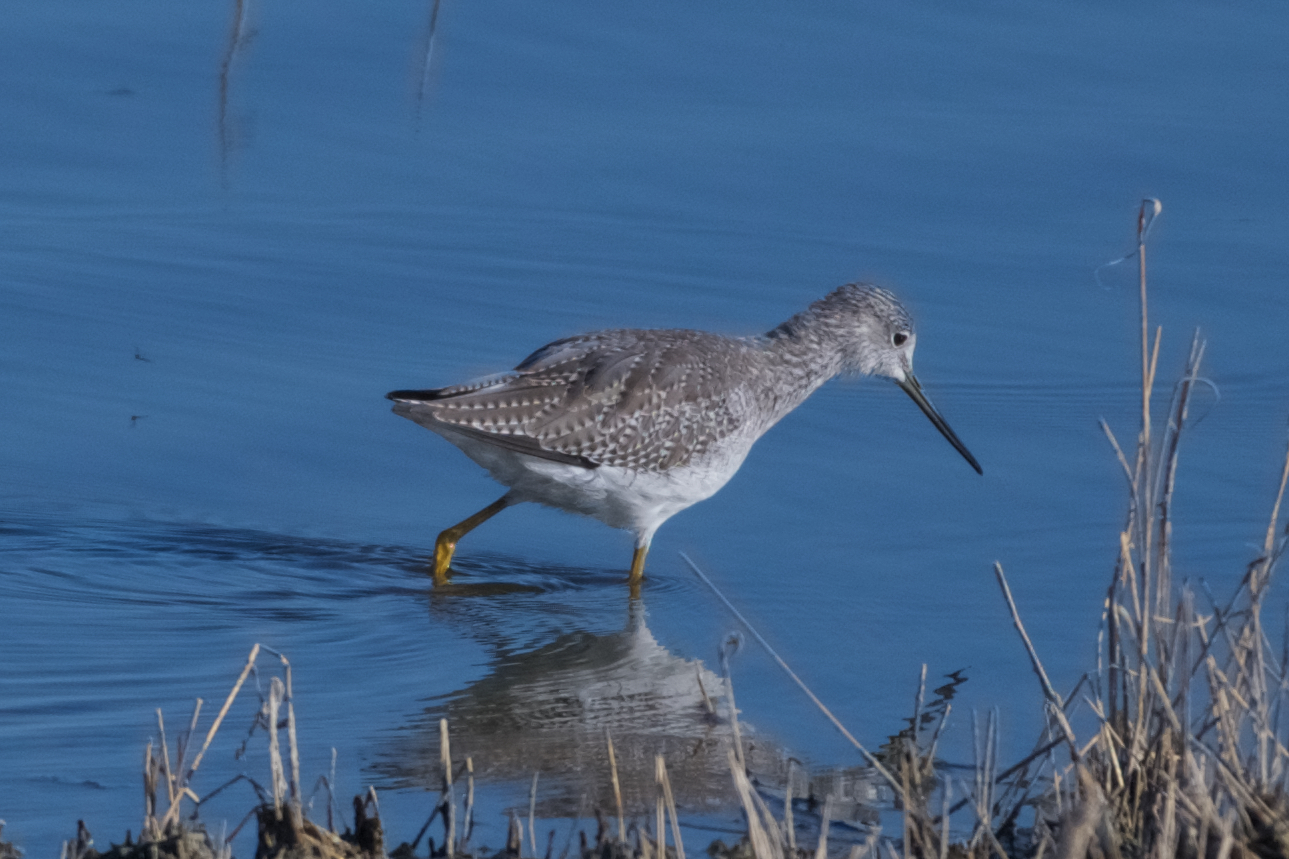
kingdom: Animalia
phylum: Chordata
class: Aves
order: Charadriiformes
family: Scolopacidae
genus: Tringa
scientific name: Tringa melanoleuca
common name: Greater yellowlegs
